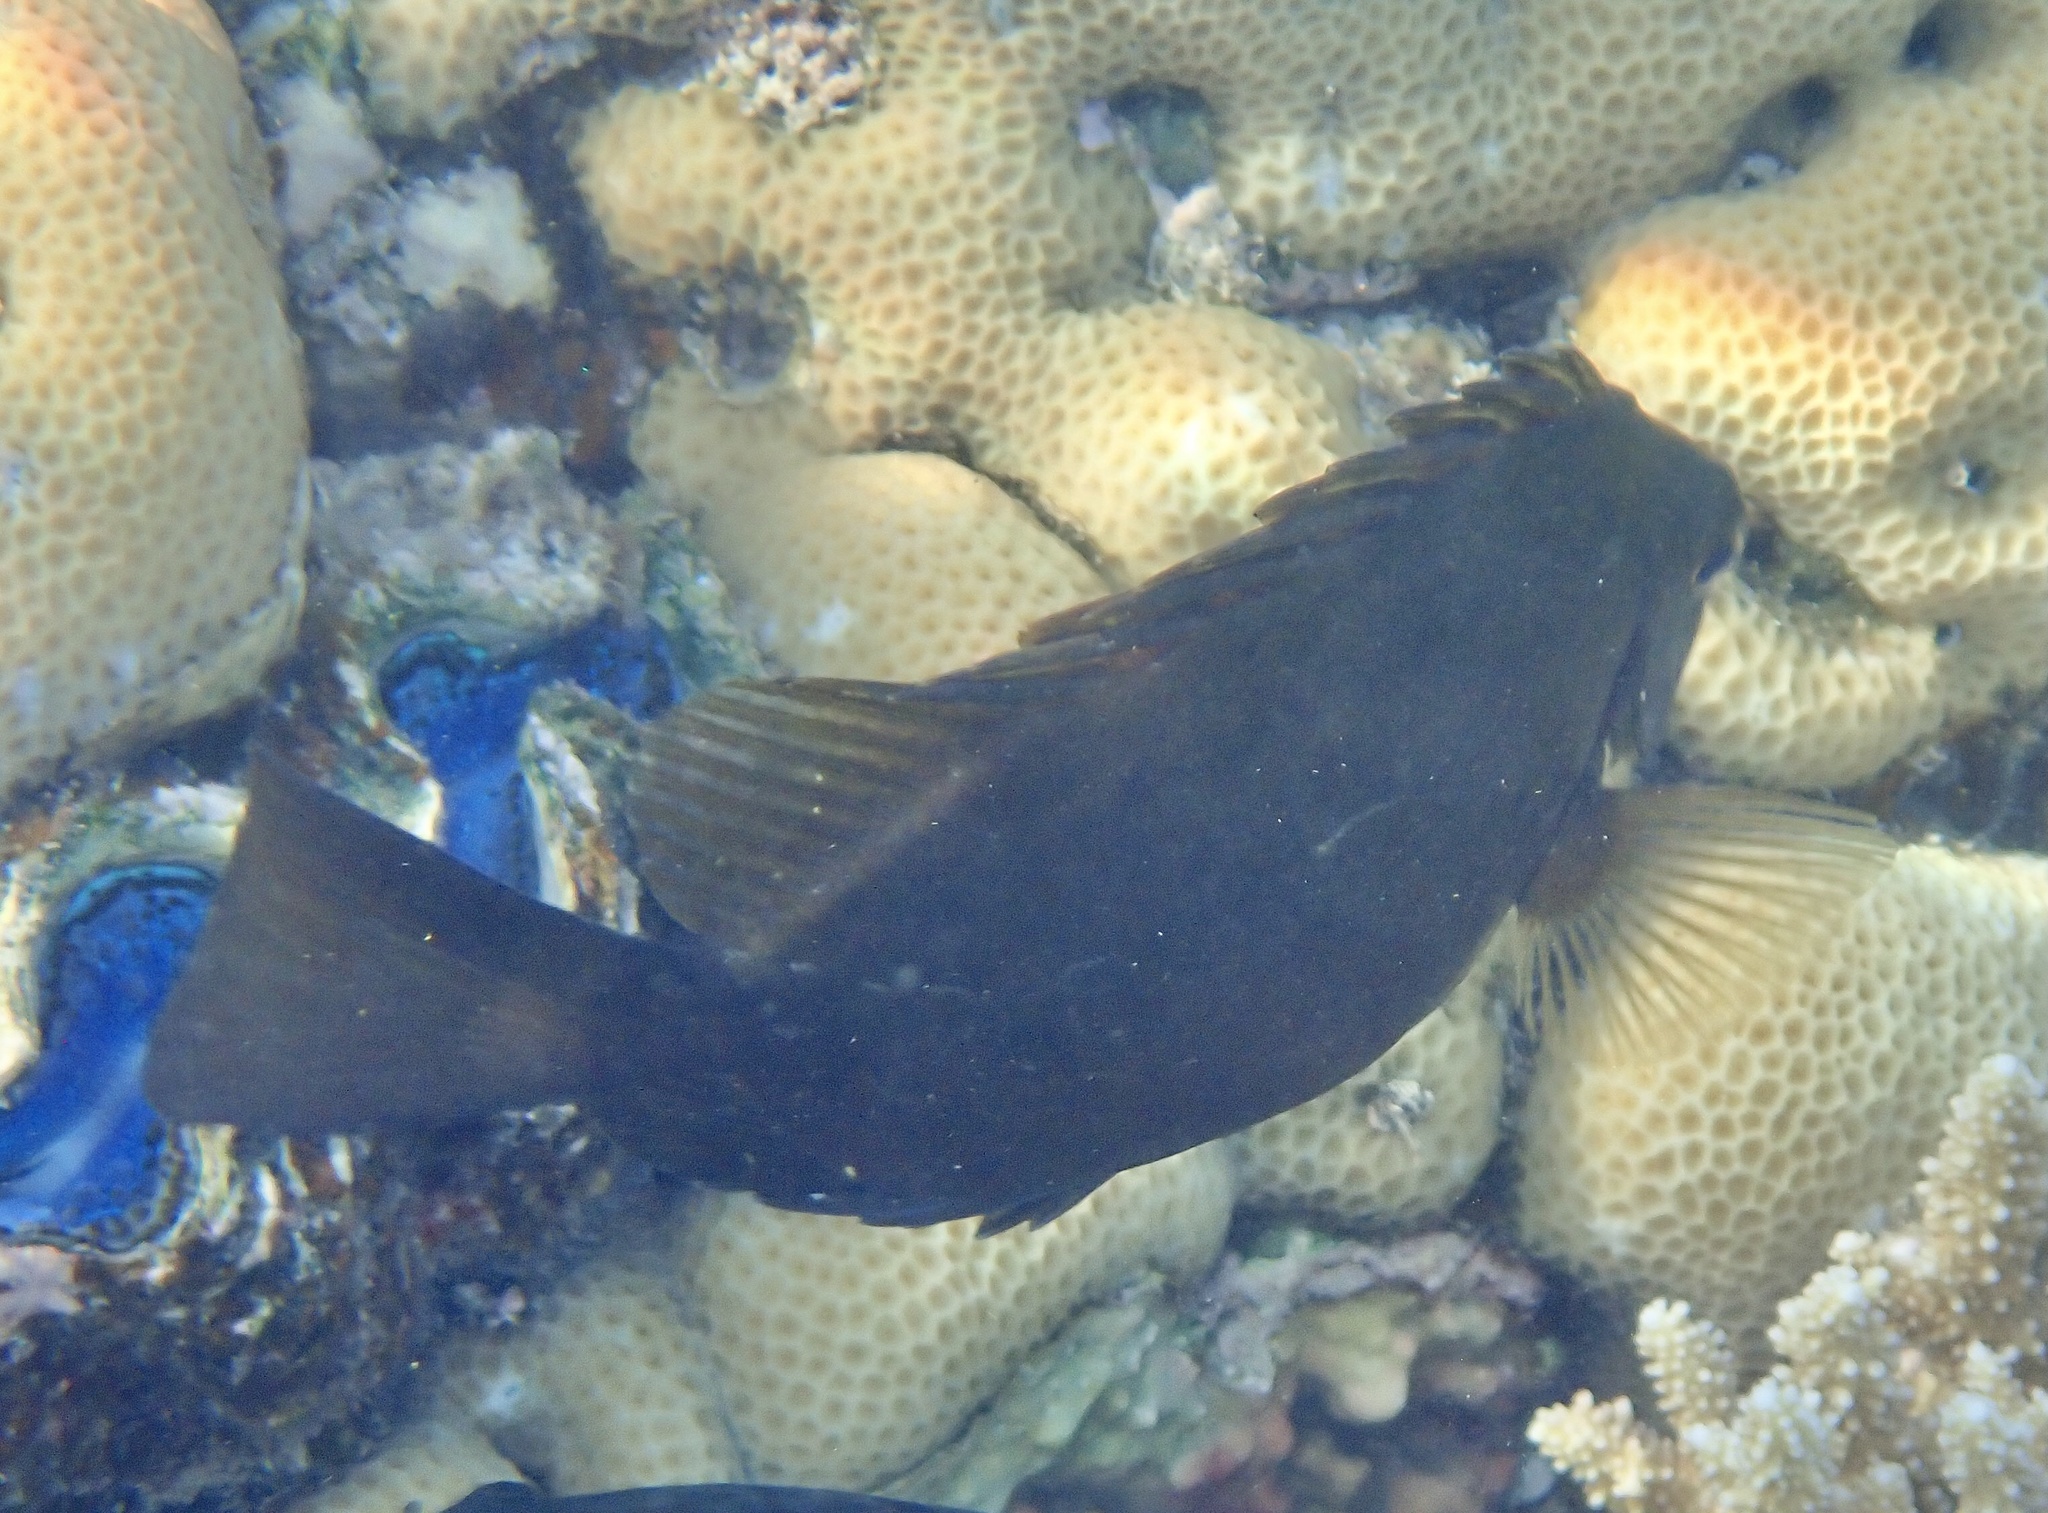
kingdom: Animalia
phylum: Chordata
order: Perciformes
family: Siganidae
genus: Siganus
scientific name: Siganus luridus
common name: Dusky spinefoot
